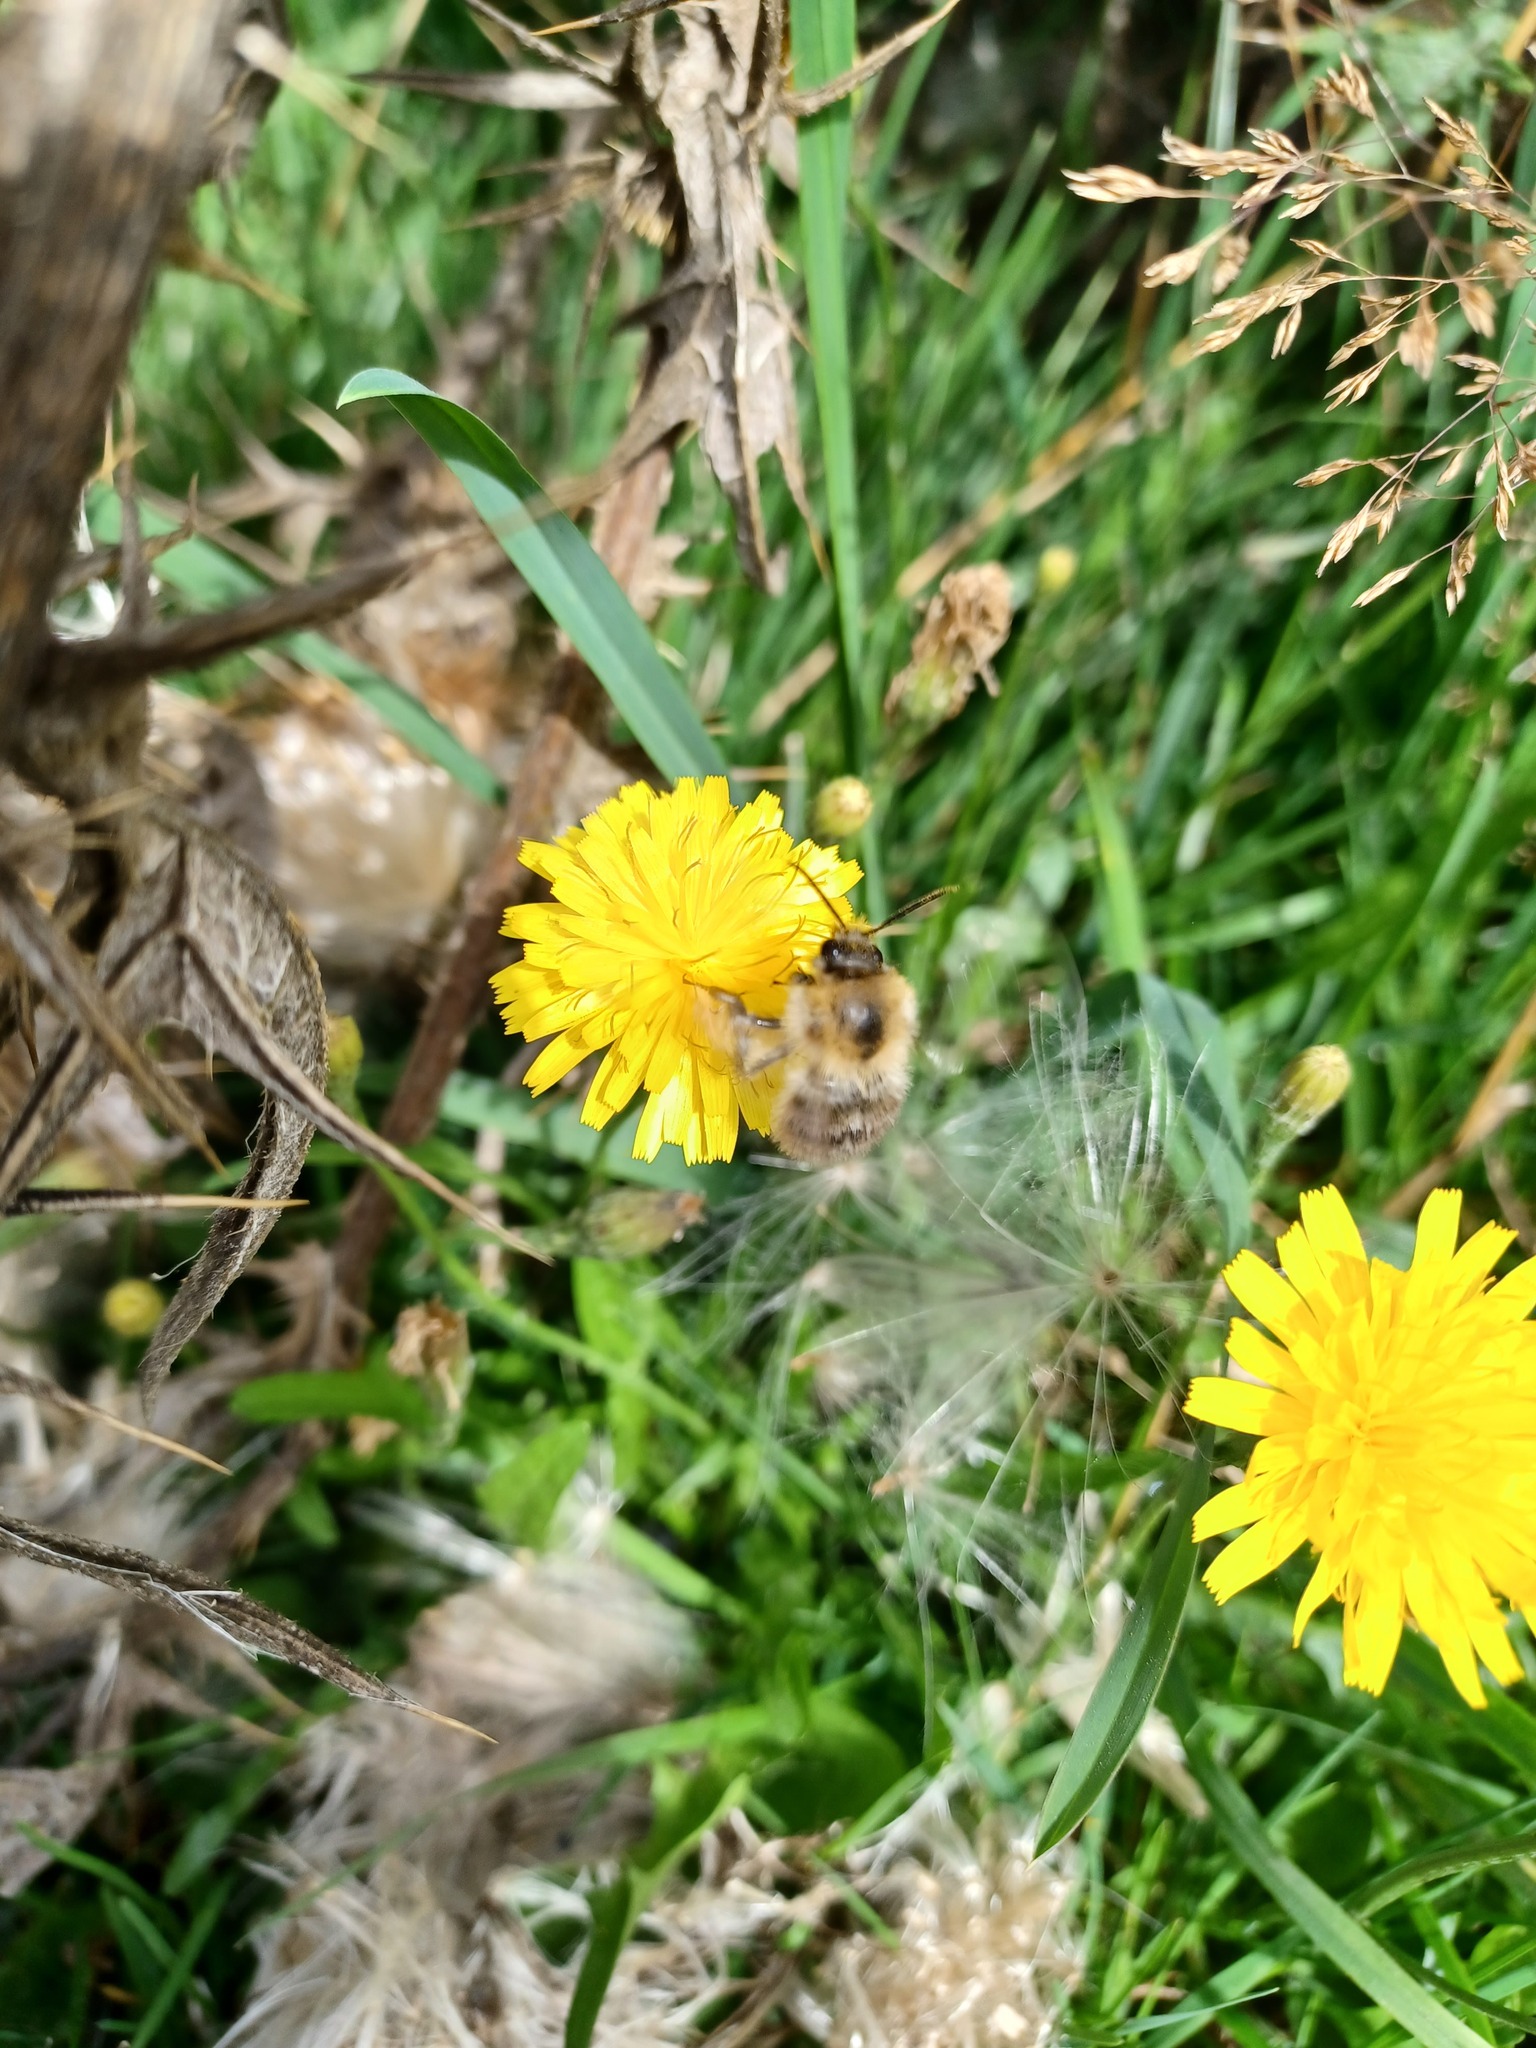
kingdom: Animalia
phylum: Arthropoda
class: Insecta
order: Hymenoptera
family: Apidae
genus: Bombus
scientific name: Bombus pascuorum
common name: Common carder bee
